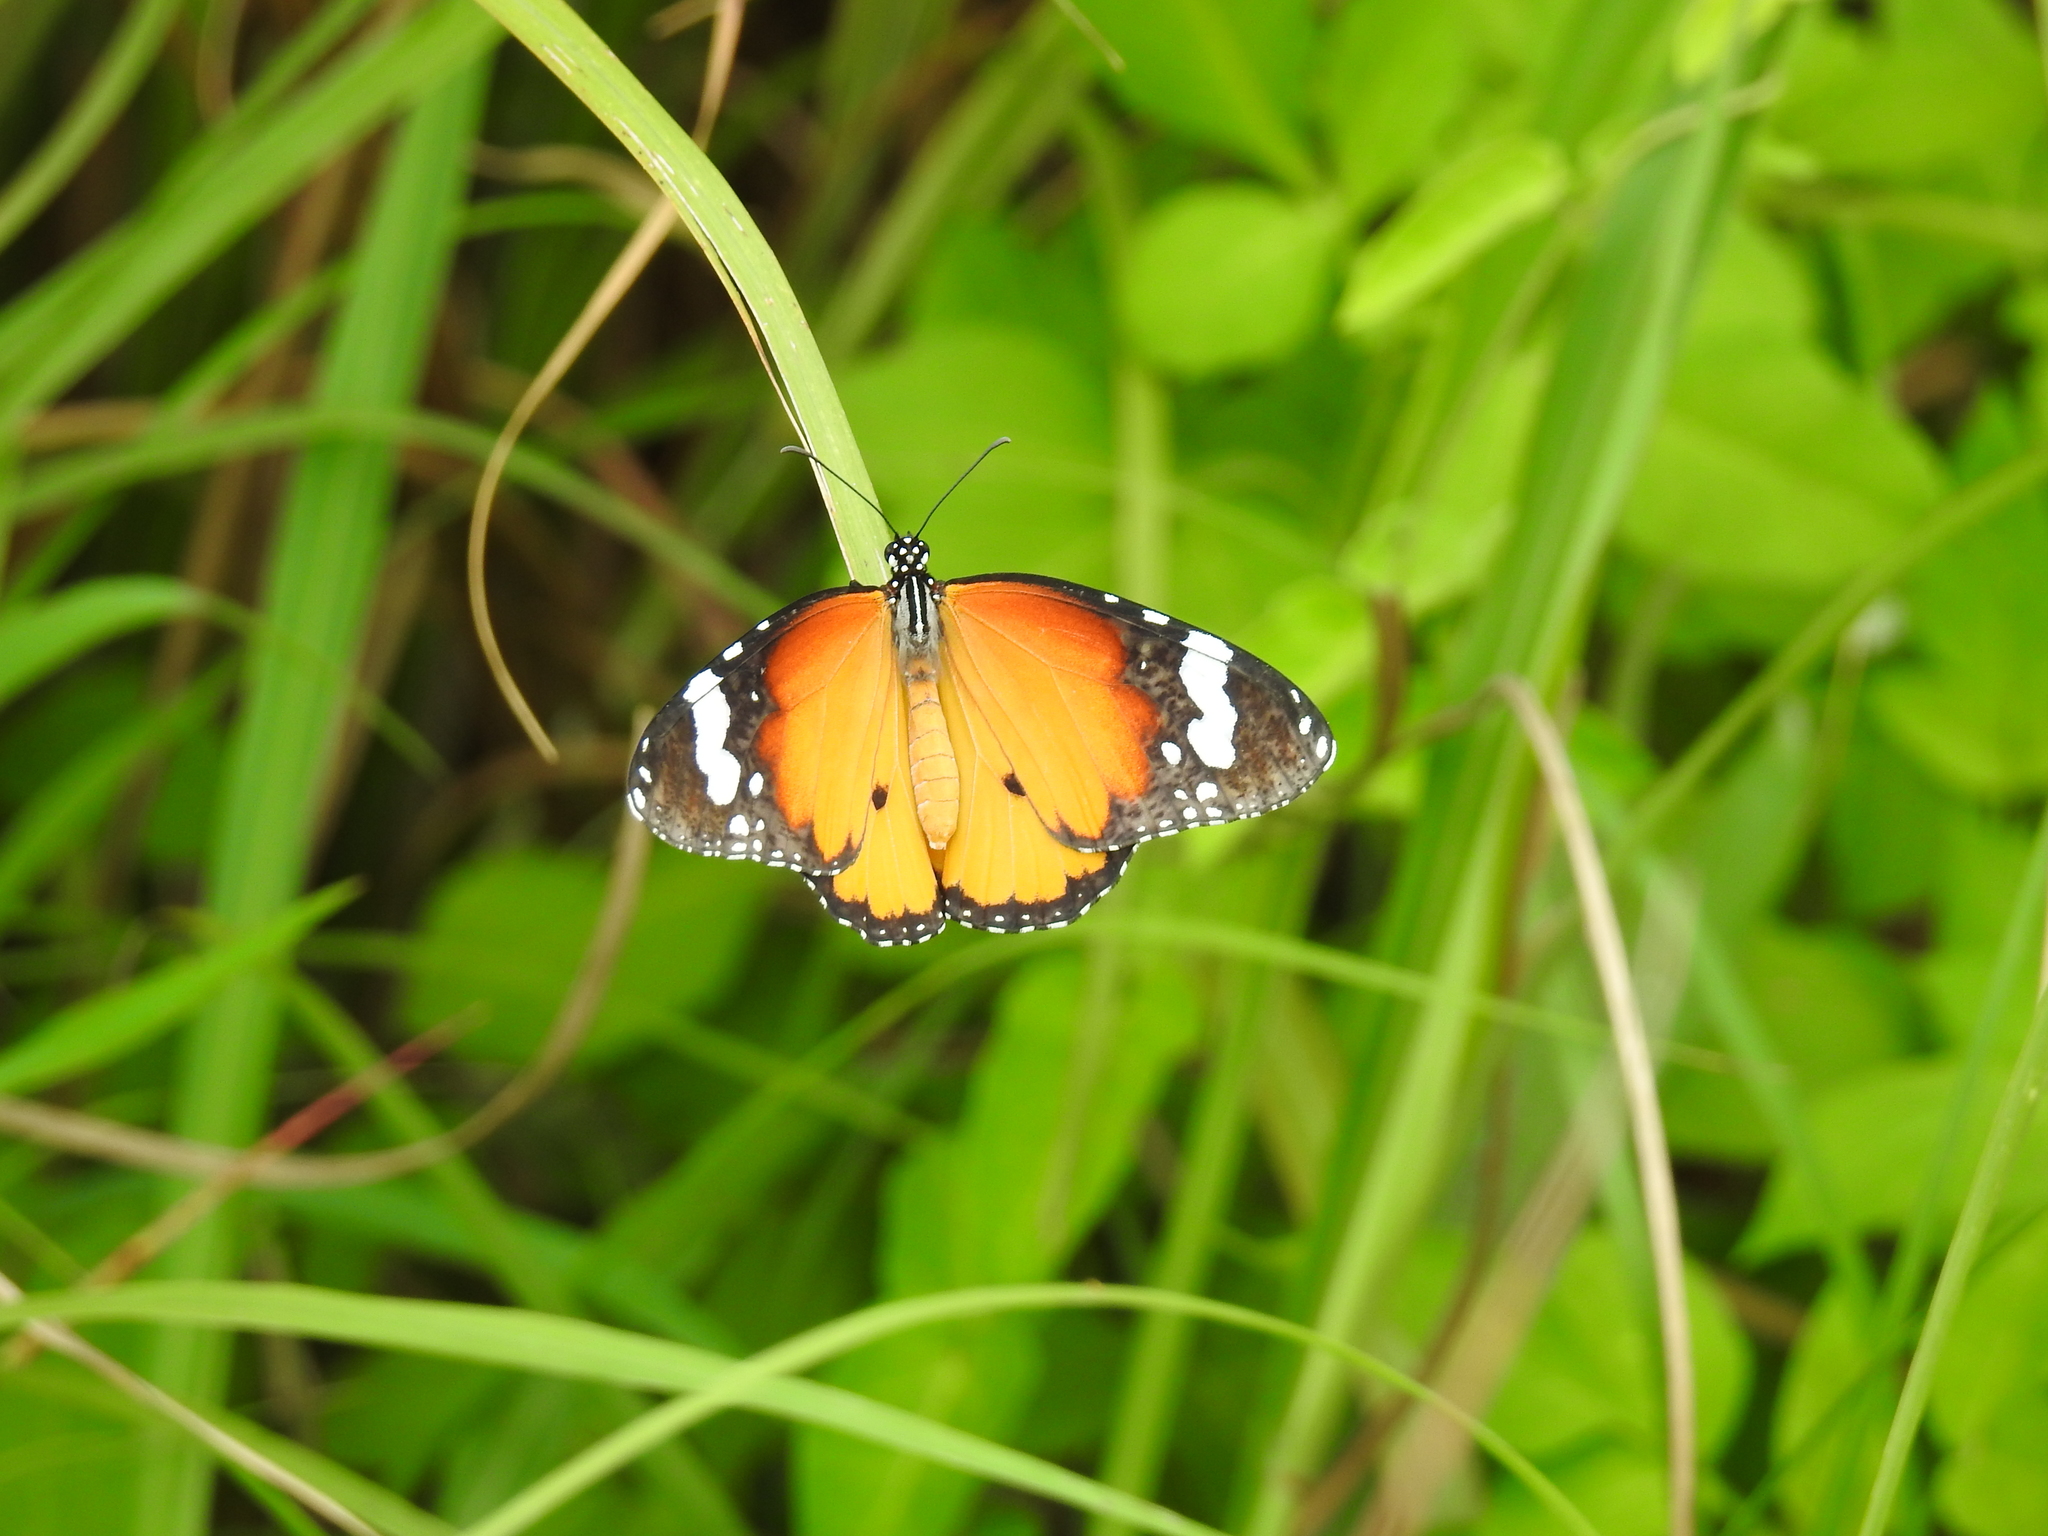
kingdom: Animalia
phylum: Arthropoda
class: Insecta
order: Lepidoptera
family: Nymphalidae
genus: Danaus
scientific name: Danaus chrysippus
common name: Plain tiger
